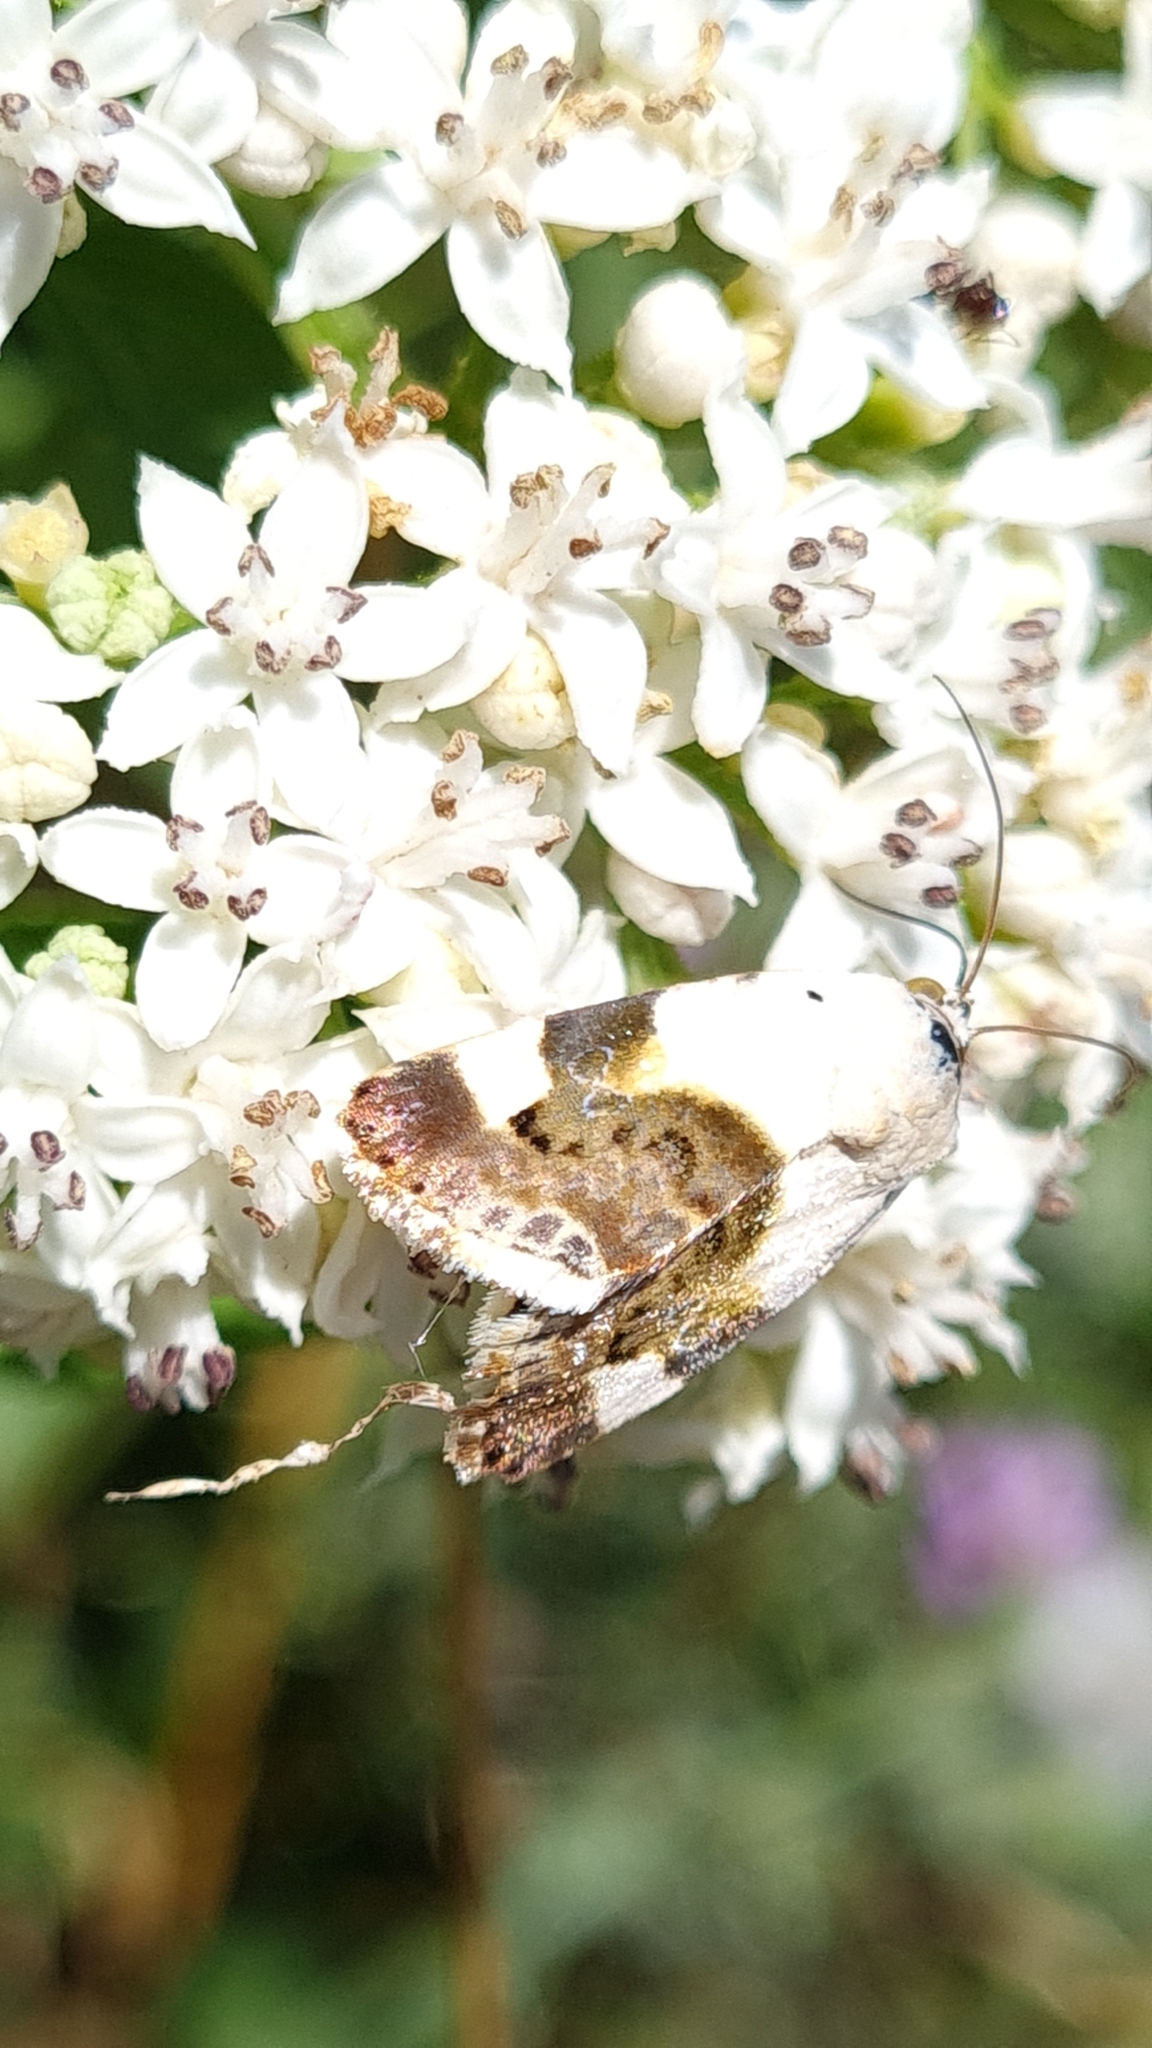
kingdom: Animalia
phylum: Arthropoda
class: Insecta
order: Lepidoptera
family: Noctuidae
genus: Acontia
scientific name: Acontia lucida
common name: Pale shoulder
